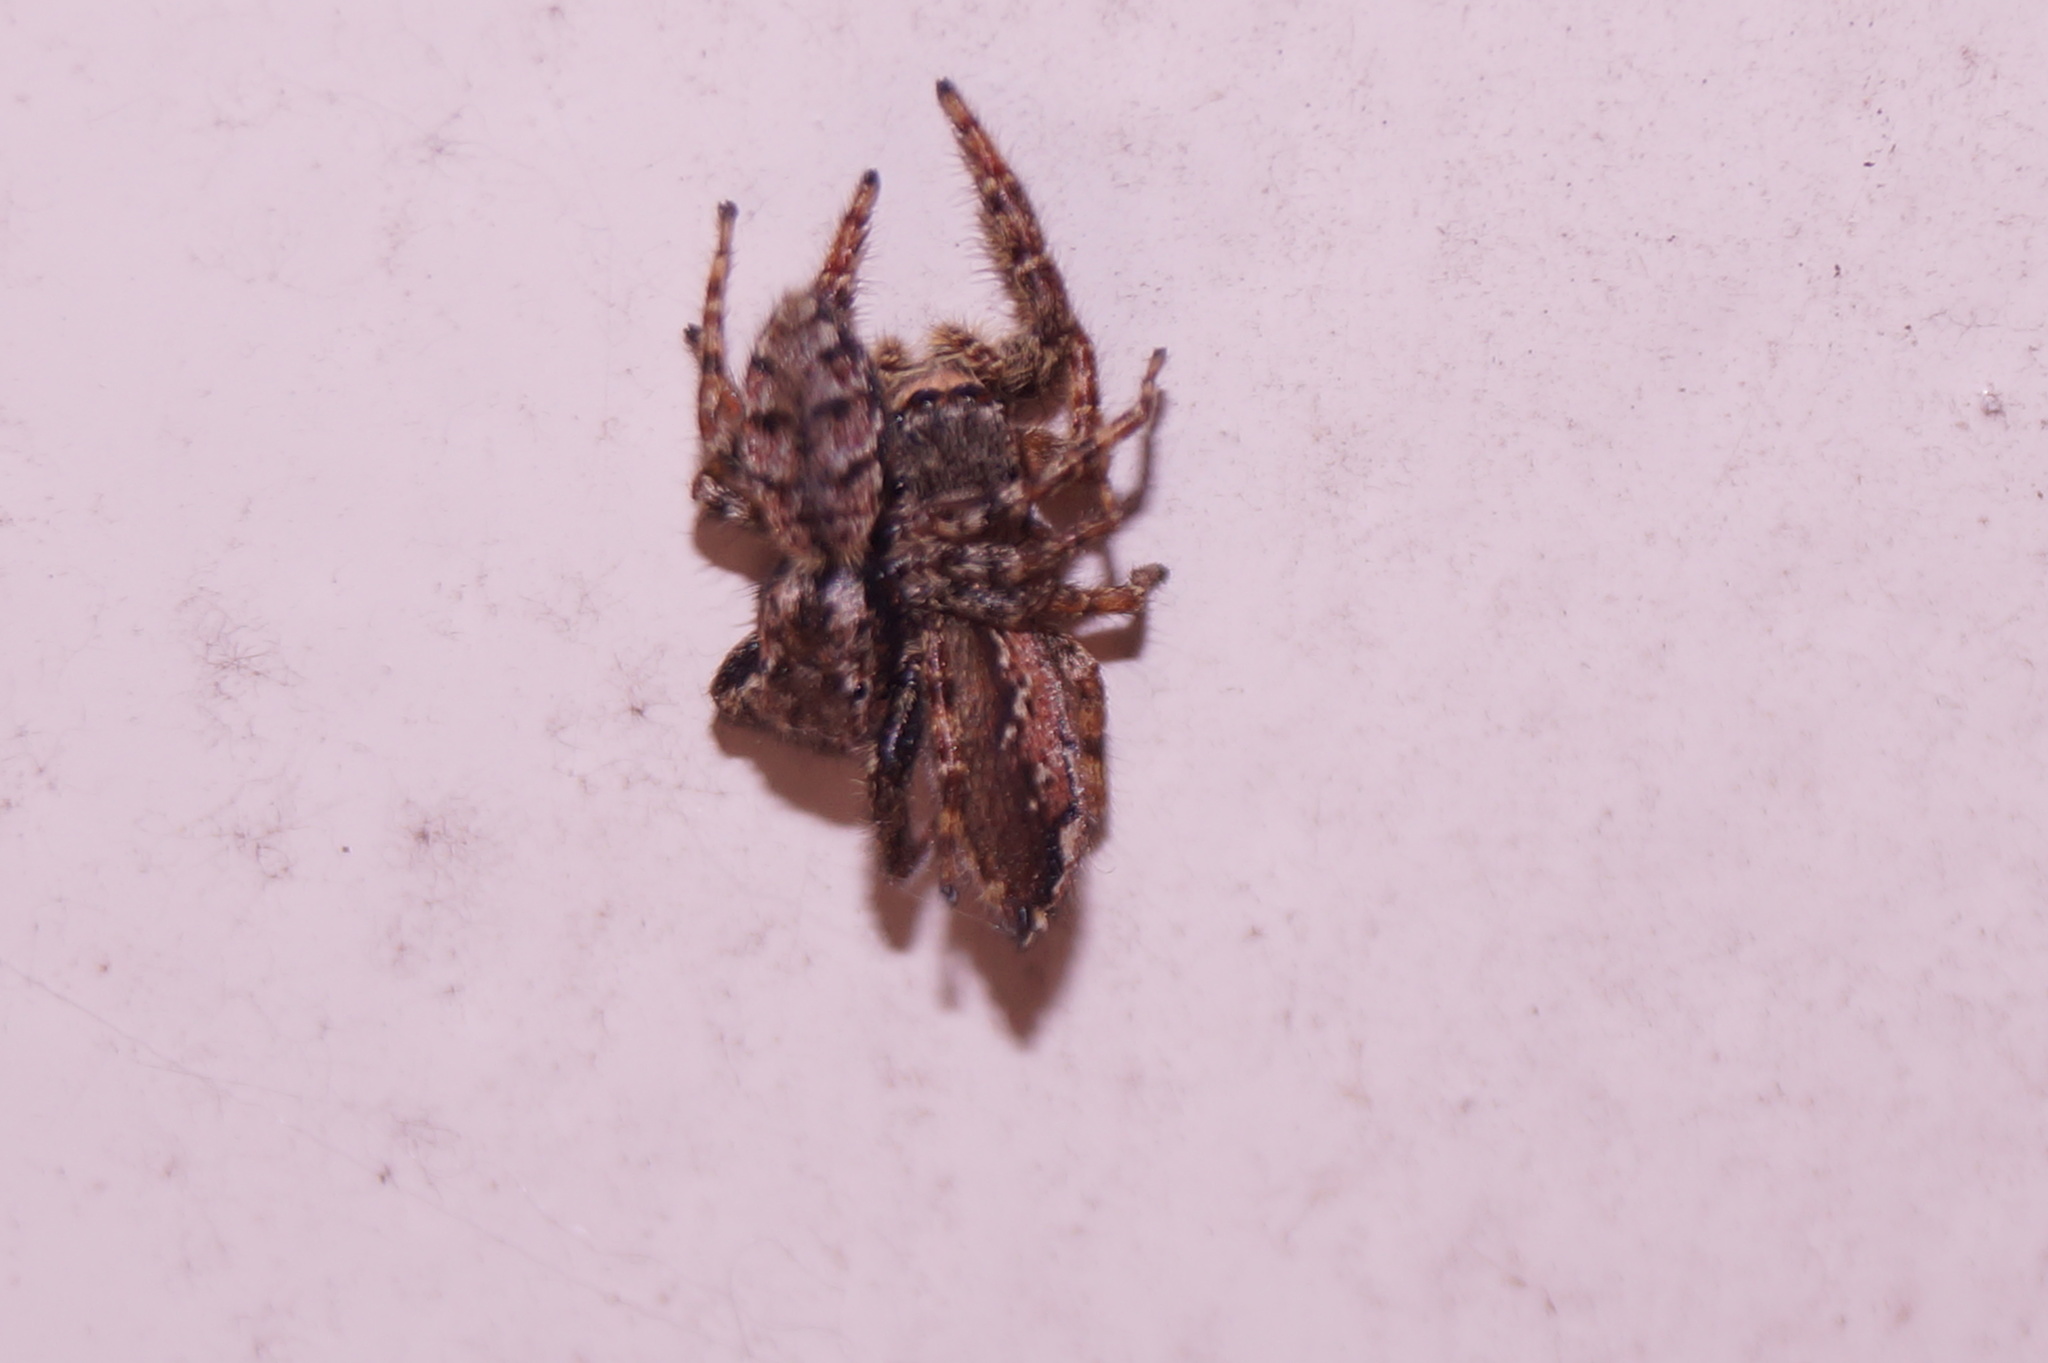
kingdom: Animalia
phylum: Arthropoda
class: Arachnida
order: Araneae
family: Salticidae
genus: Marpissa
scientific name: Marpissa muscosa
